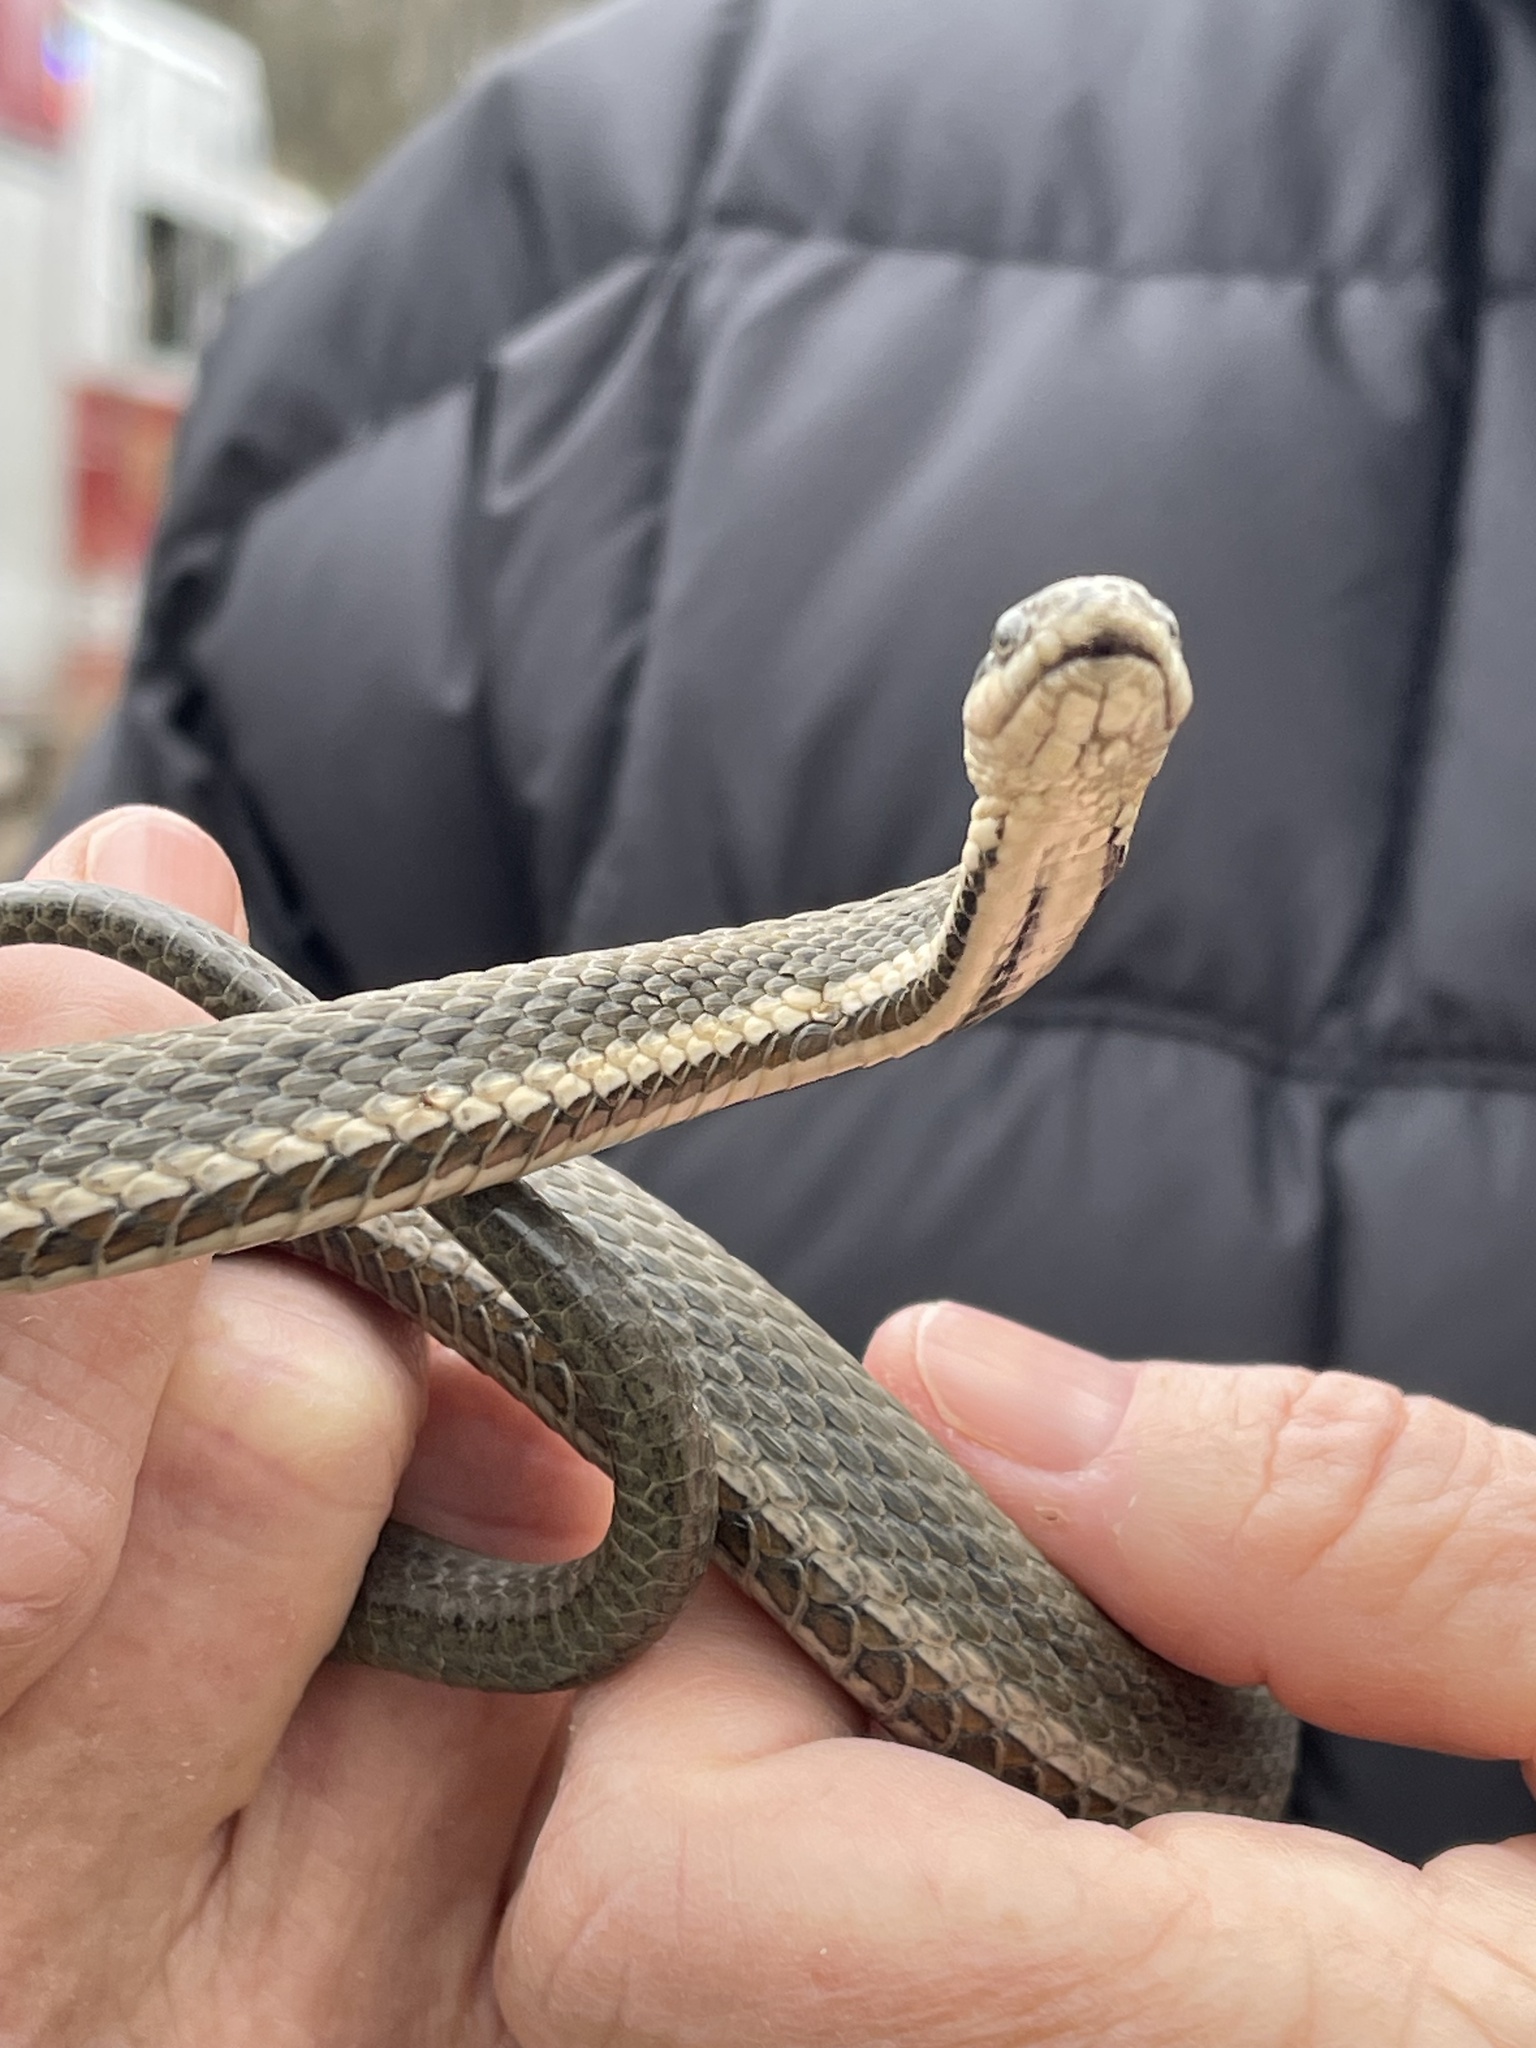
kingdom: Animalia
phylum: Chordata
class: Squamata
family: Colubridae
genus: Regina
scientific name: Regina septemvittata
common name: Queen snake
